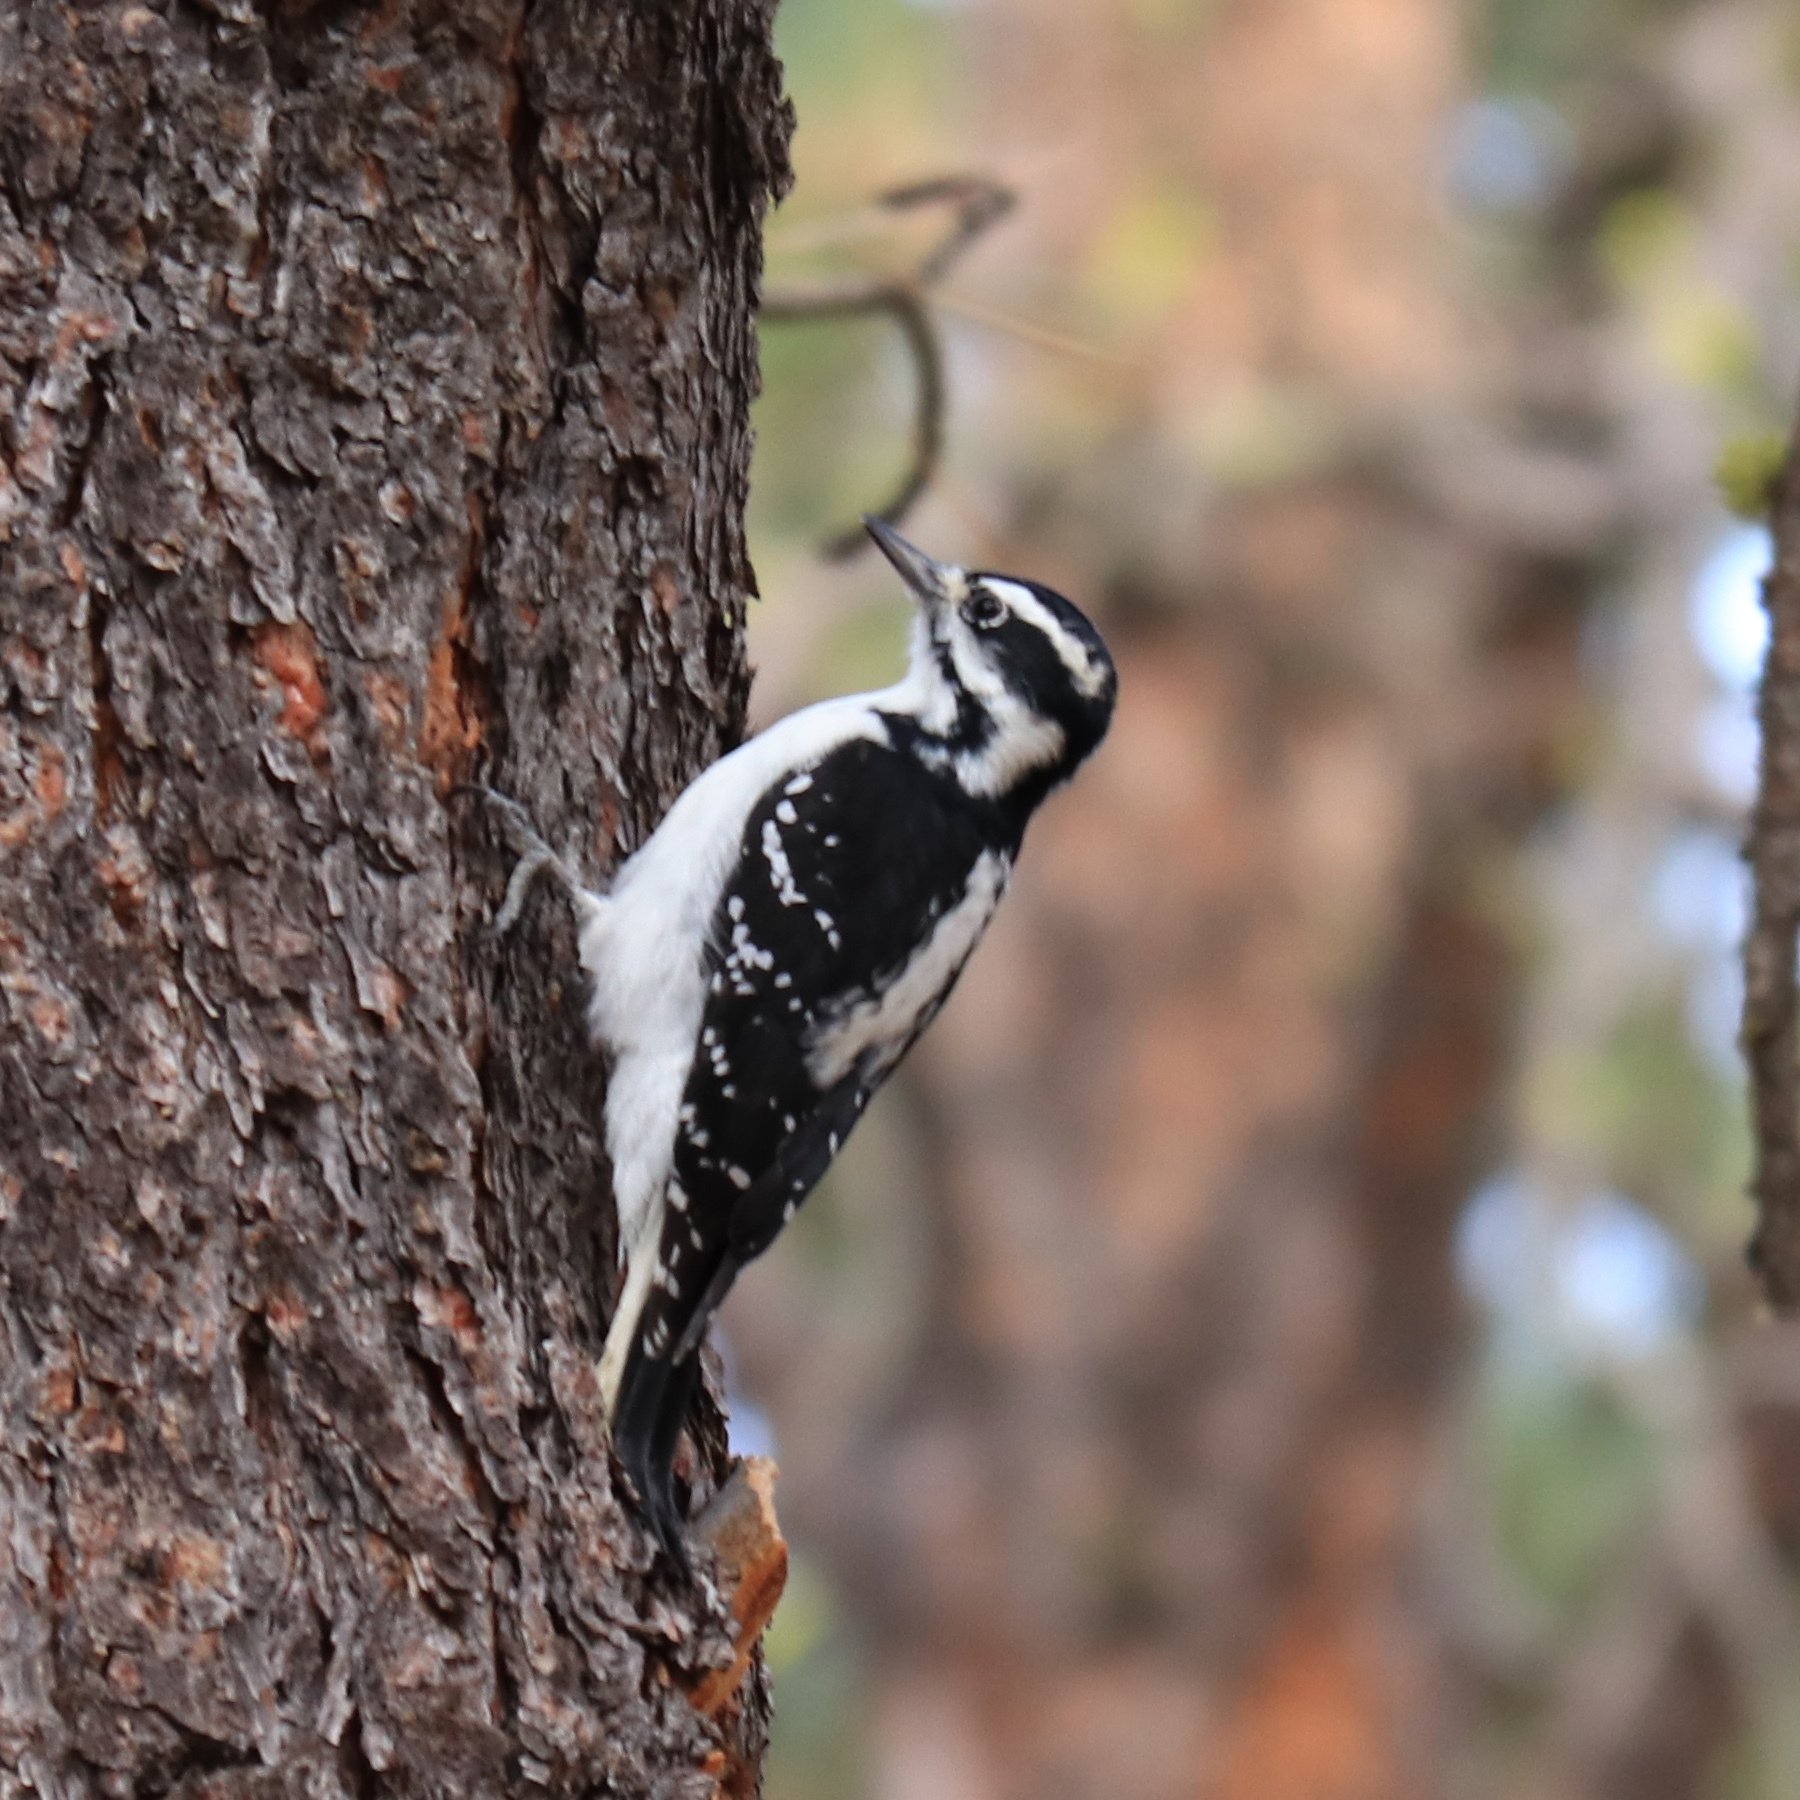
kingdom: Animalia
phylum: Chordata
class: Aves
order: Piciformes
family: Picidae
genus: Leuconotopicus
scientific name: Leuconotopicus villosus
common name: Hairy woodpecker
